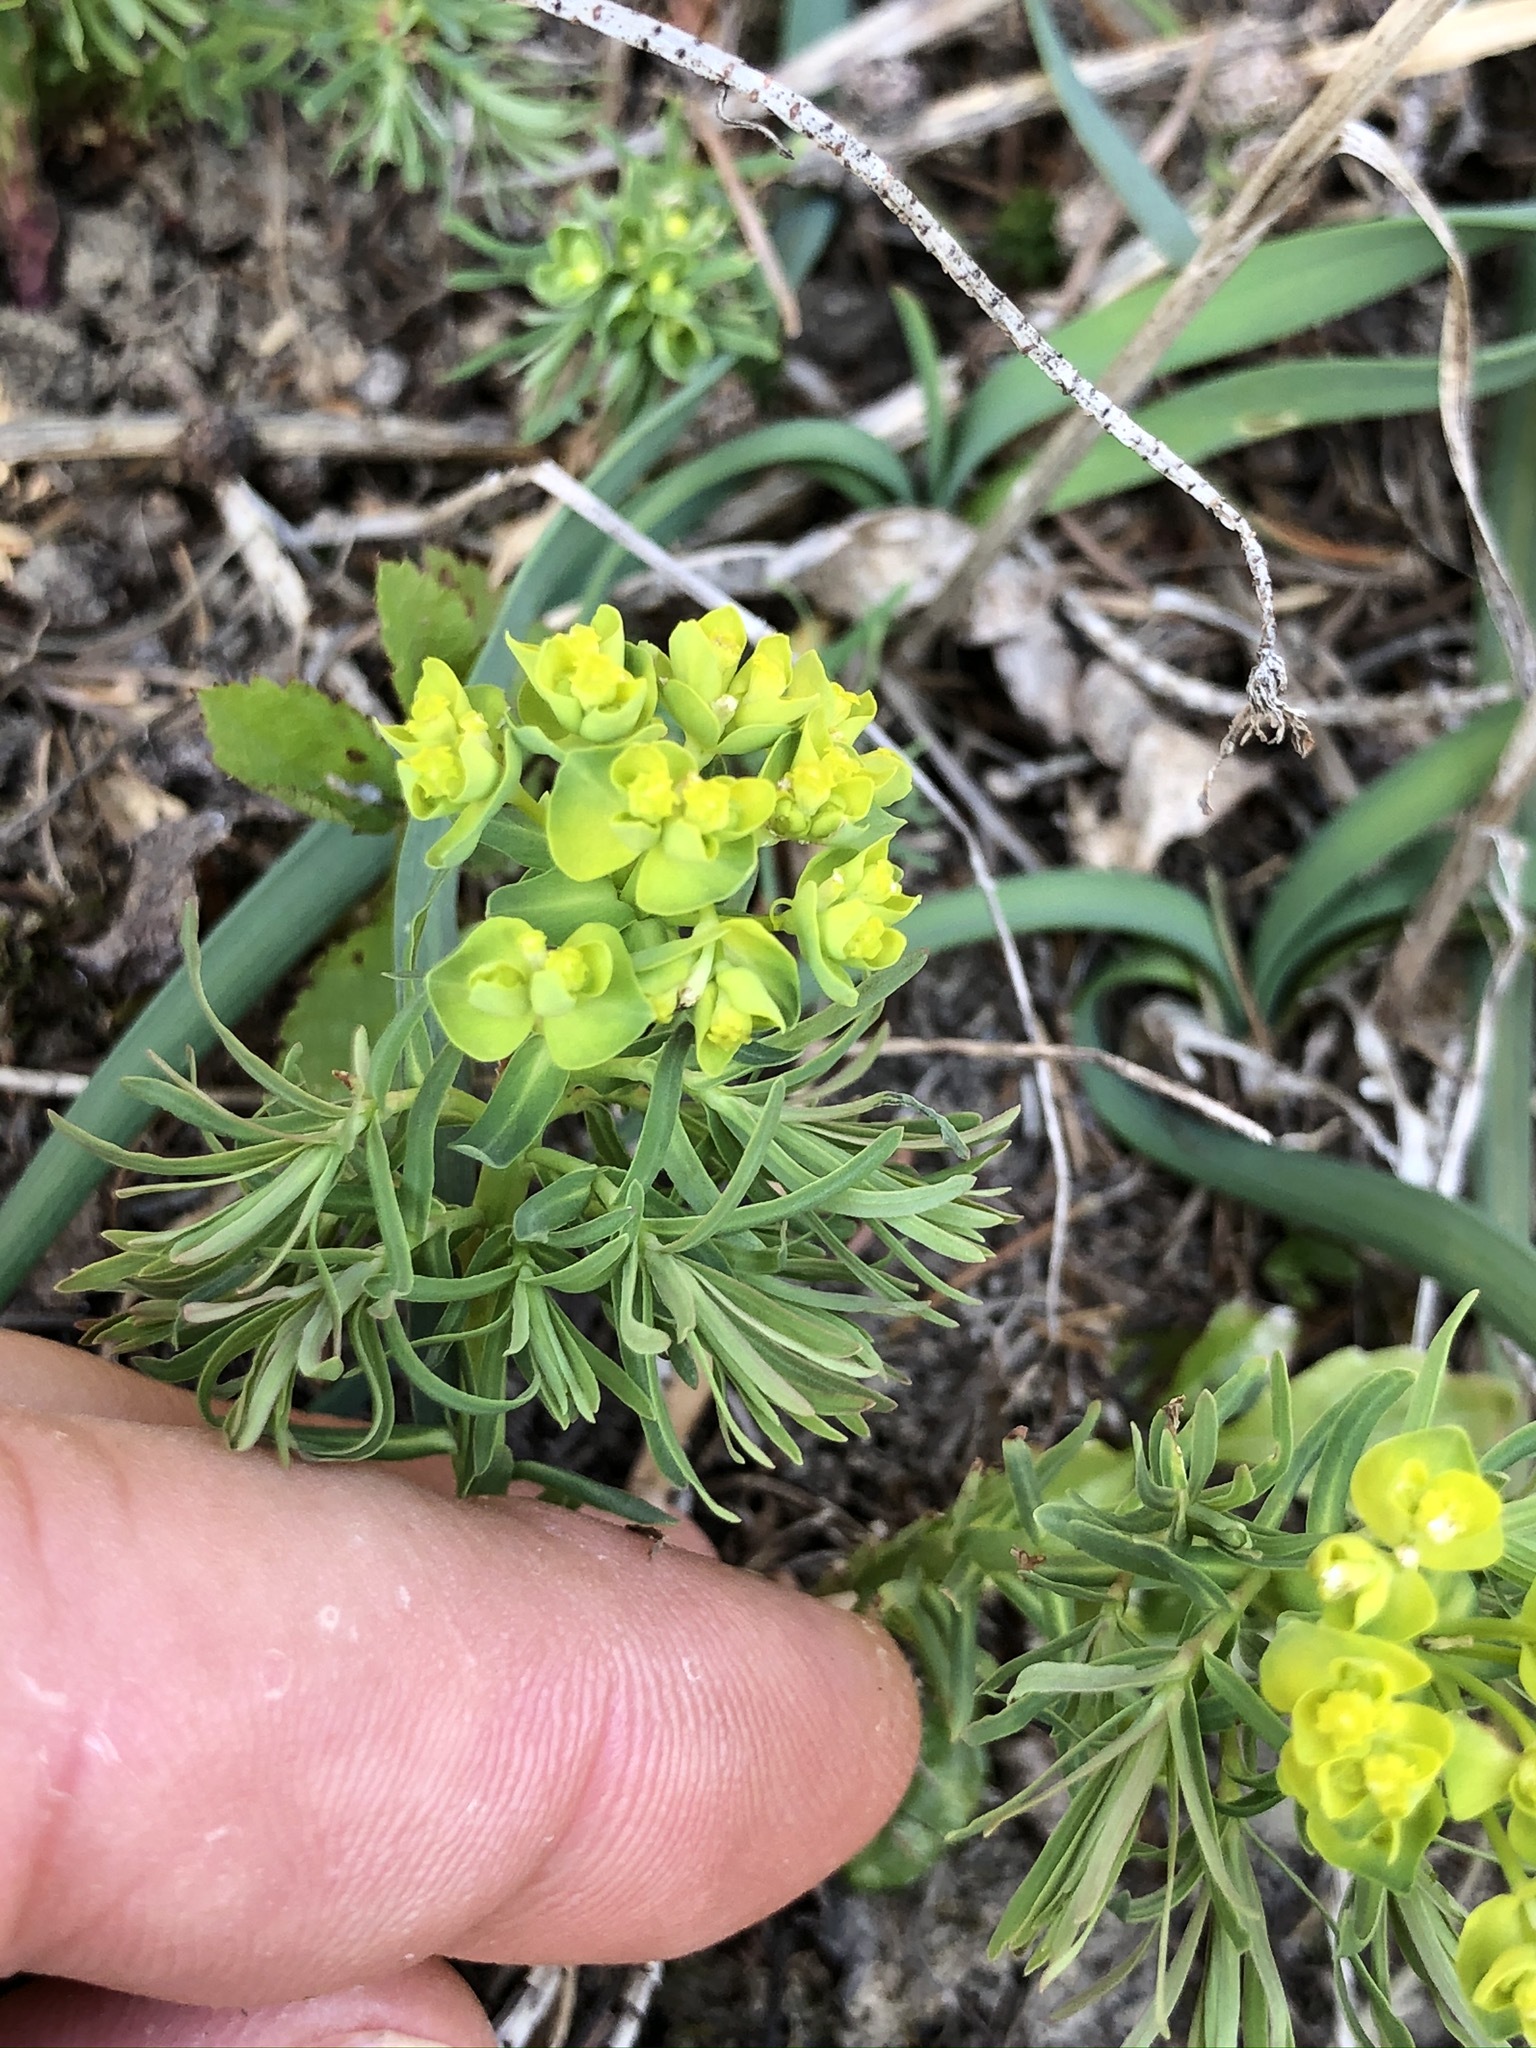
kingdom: Plantae
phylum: Tracheophyta
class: Magnoliopsida
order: Malpighiales
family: Euphorbiaceae
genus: Euphorbia
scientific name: Euphorbia cyparissias
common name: Cypress spurge
